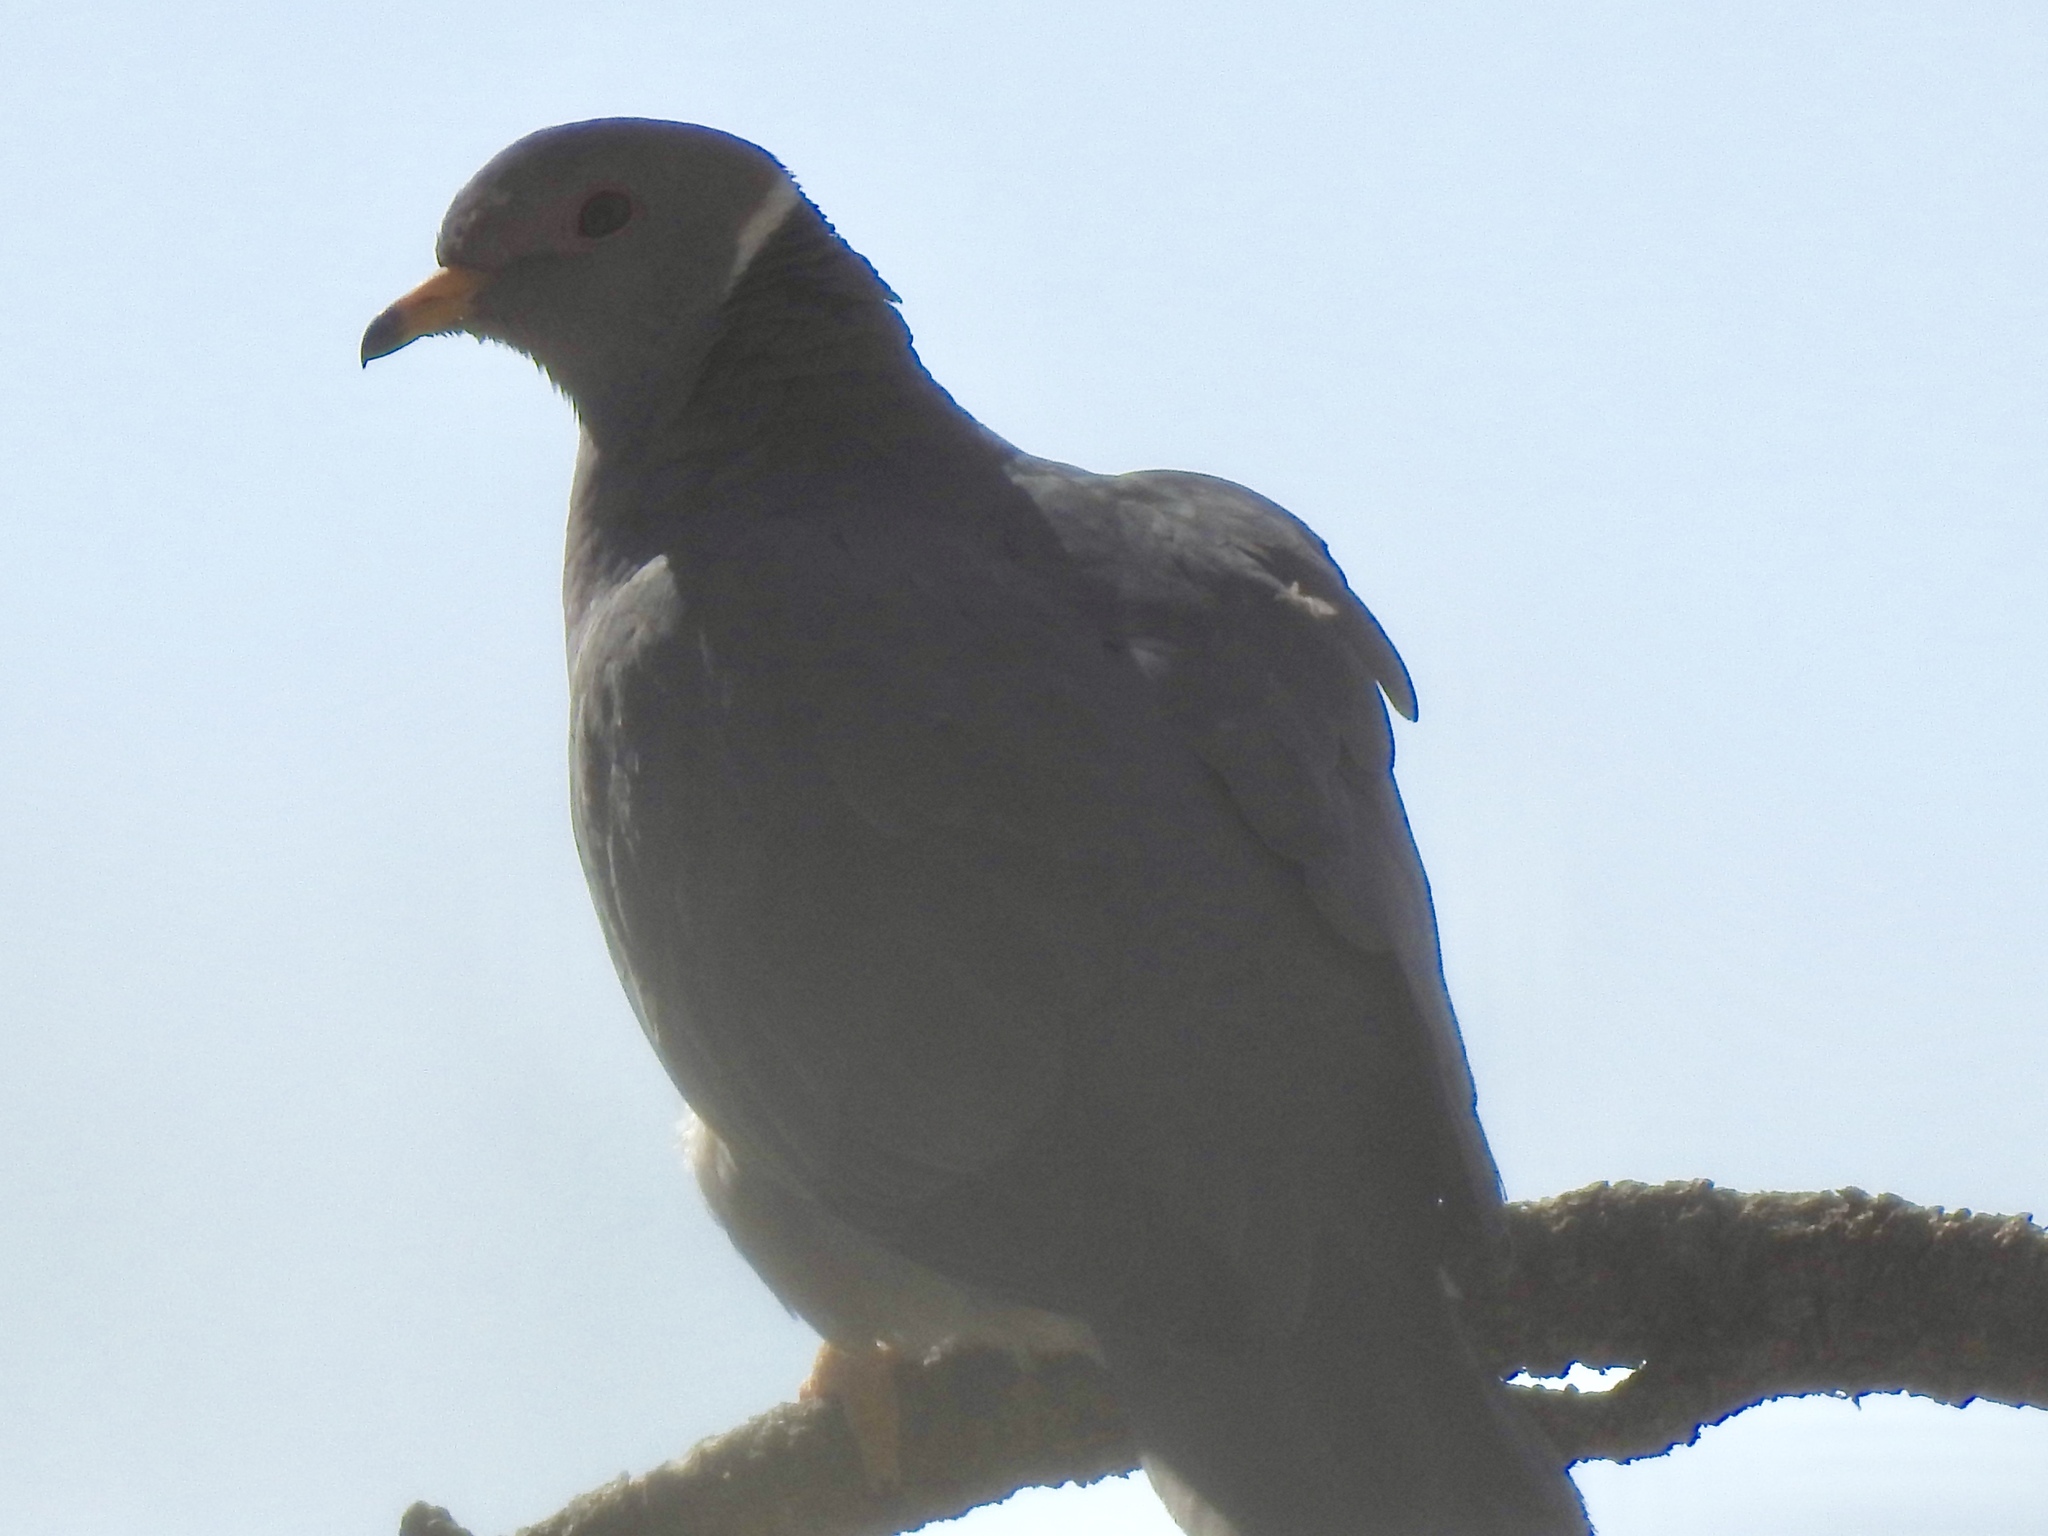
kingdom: Animalia
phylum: Chordata
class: Aves
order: Columbiformes
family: Columbidae
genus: Patagioenas
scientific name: Patagioenas fasciata
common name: Band-tailed pigeon
